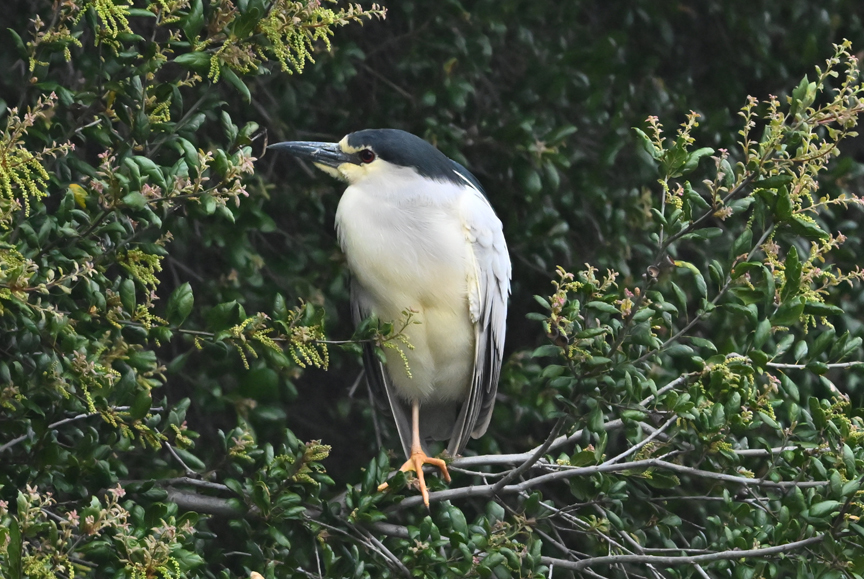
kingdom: Animalia
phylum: Chordata
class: Aves
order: Pelecaniformes
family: Ardeidae
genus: Nycticorax
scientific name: Nycticorax nycticorax
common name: Black-crowned night heron
